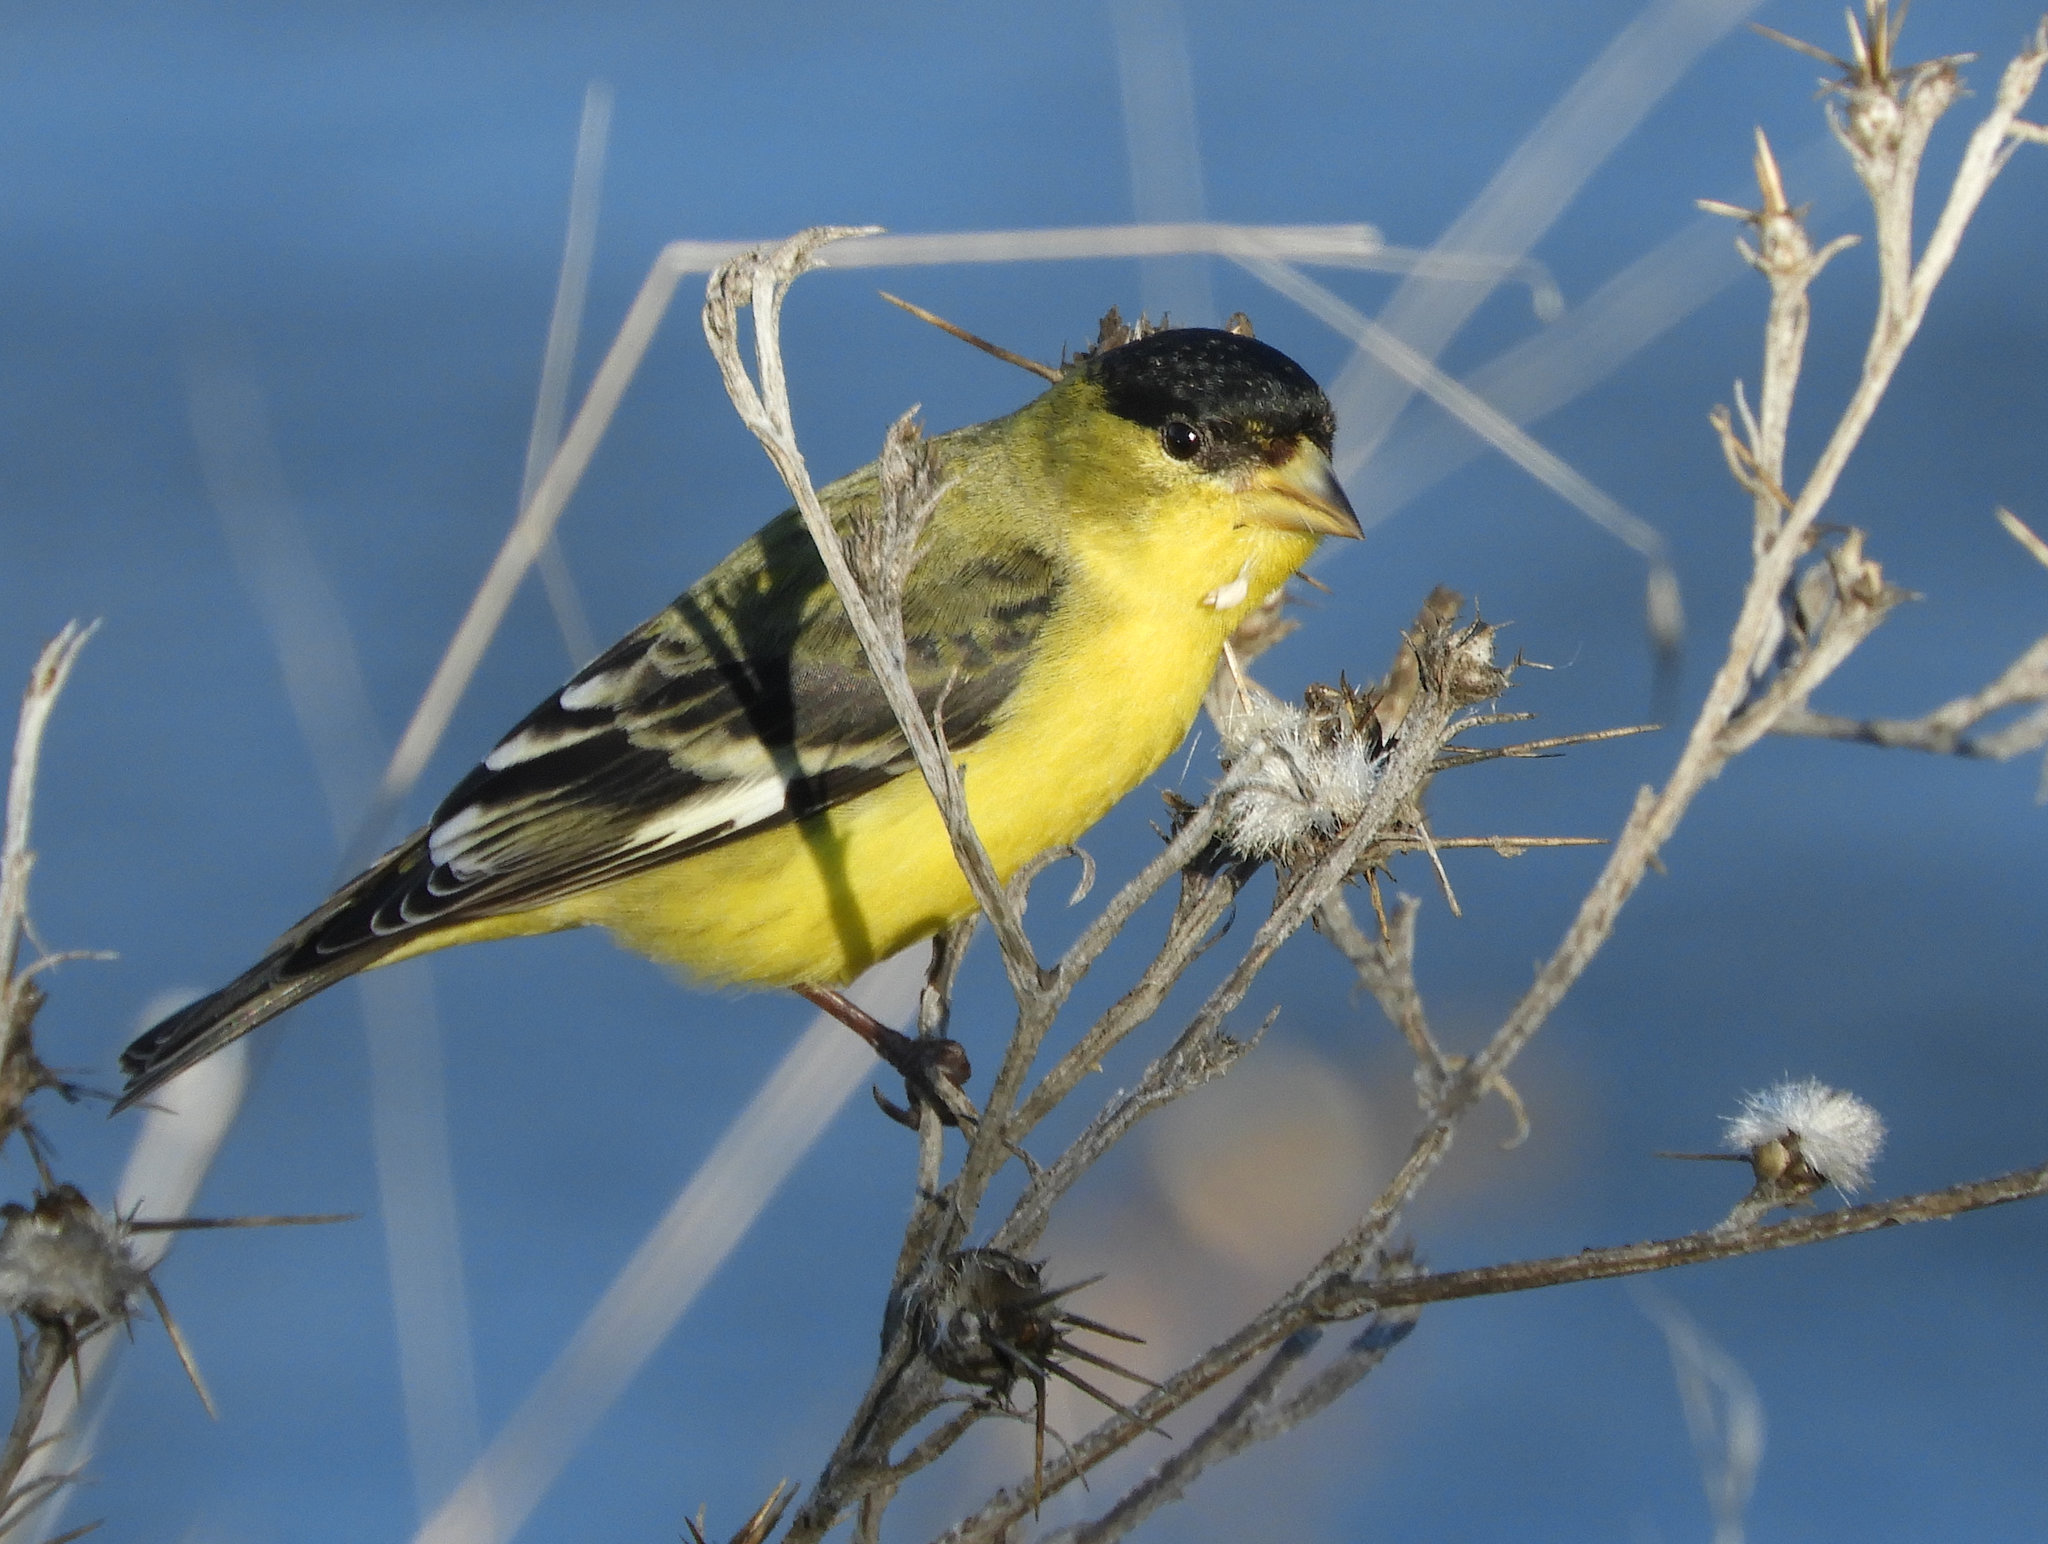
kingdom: Animalia
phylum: Chordata
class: Aves
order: Passeriformes
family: Fringillidae
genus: Spinus
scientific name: Spinus psaltria
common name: Lesser goldfinch
